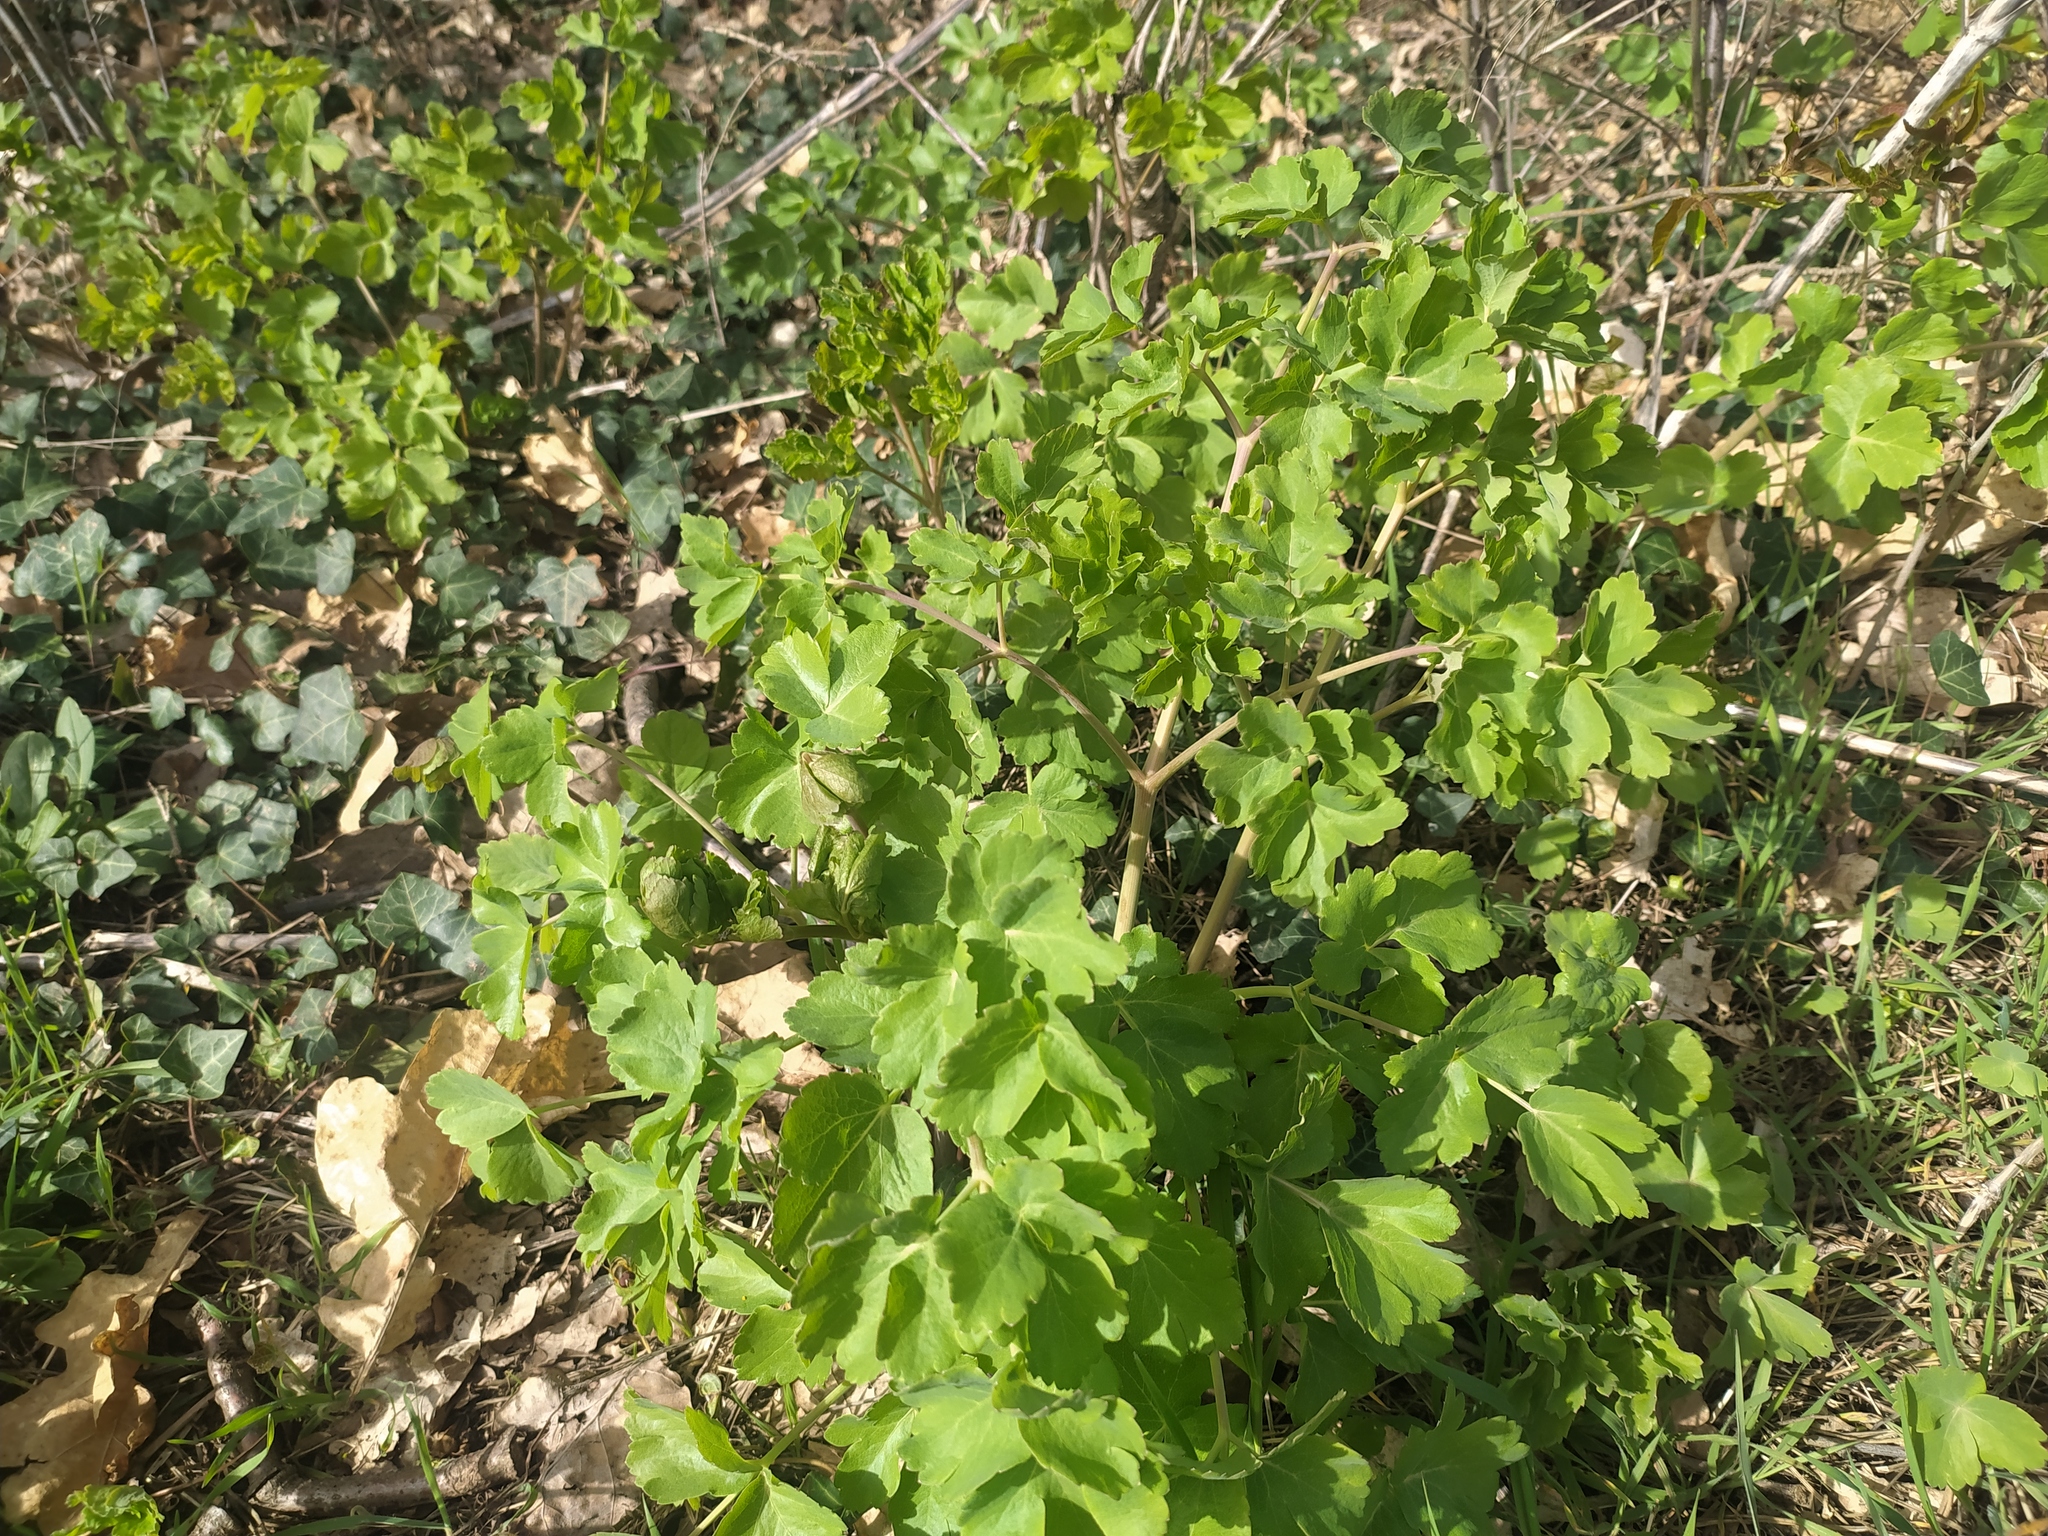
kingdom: Plantae
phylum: Tracheophyta
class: Magnoliopsida
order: Apiales
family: Apiaceae
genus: Laser
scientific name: Laser trilobum
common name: Laser
